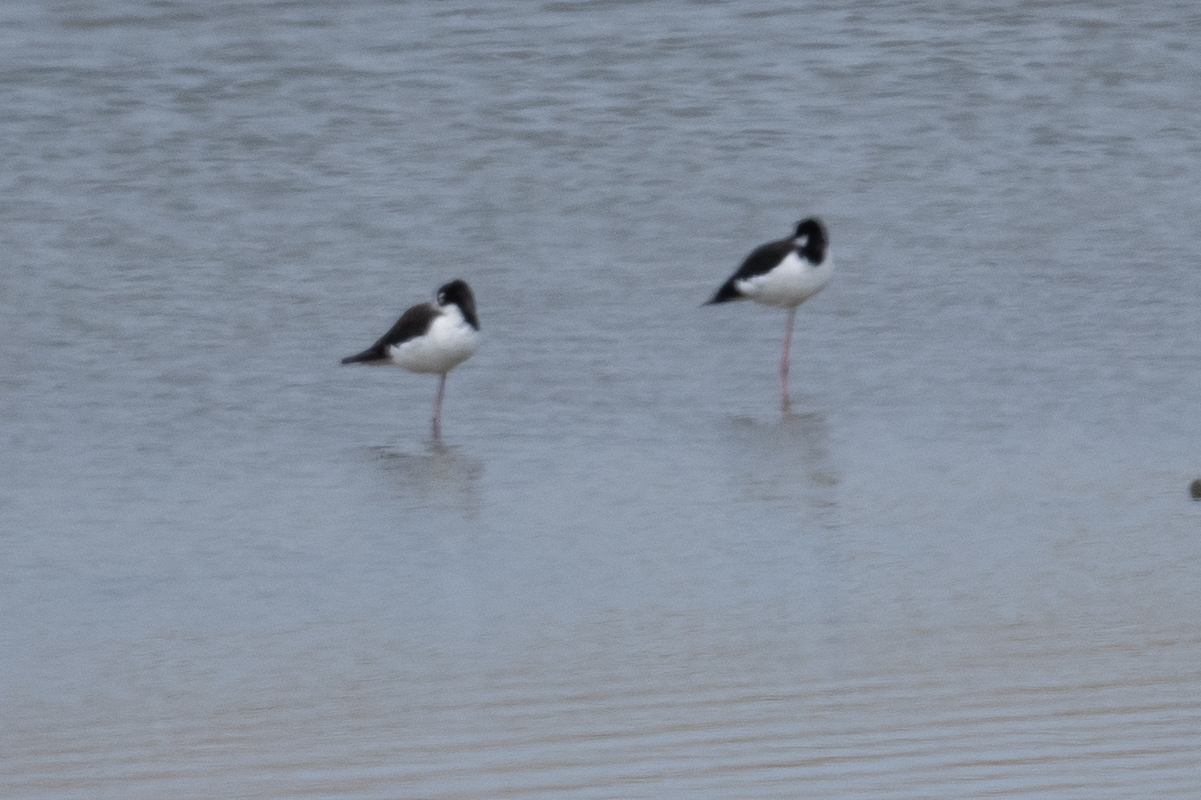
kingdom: Animalia
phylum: Chordata
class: Aves
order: Charadriiformes
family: Recurvirostridae
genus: Himantopus
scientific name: Himantopus mexicanus
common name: Black-necked stilt
